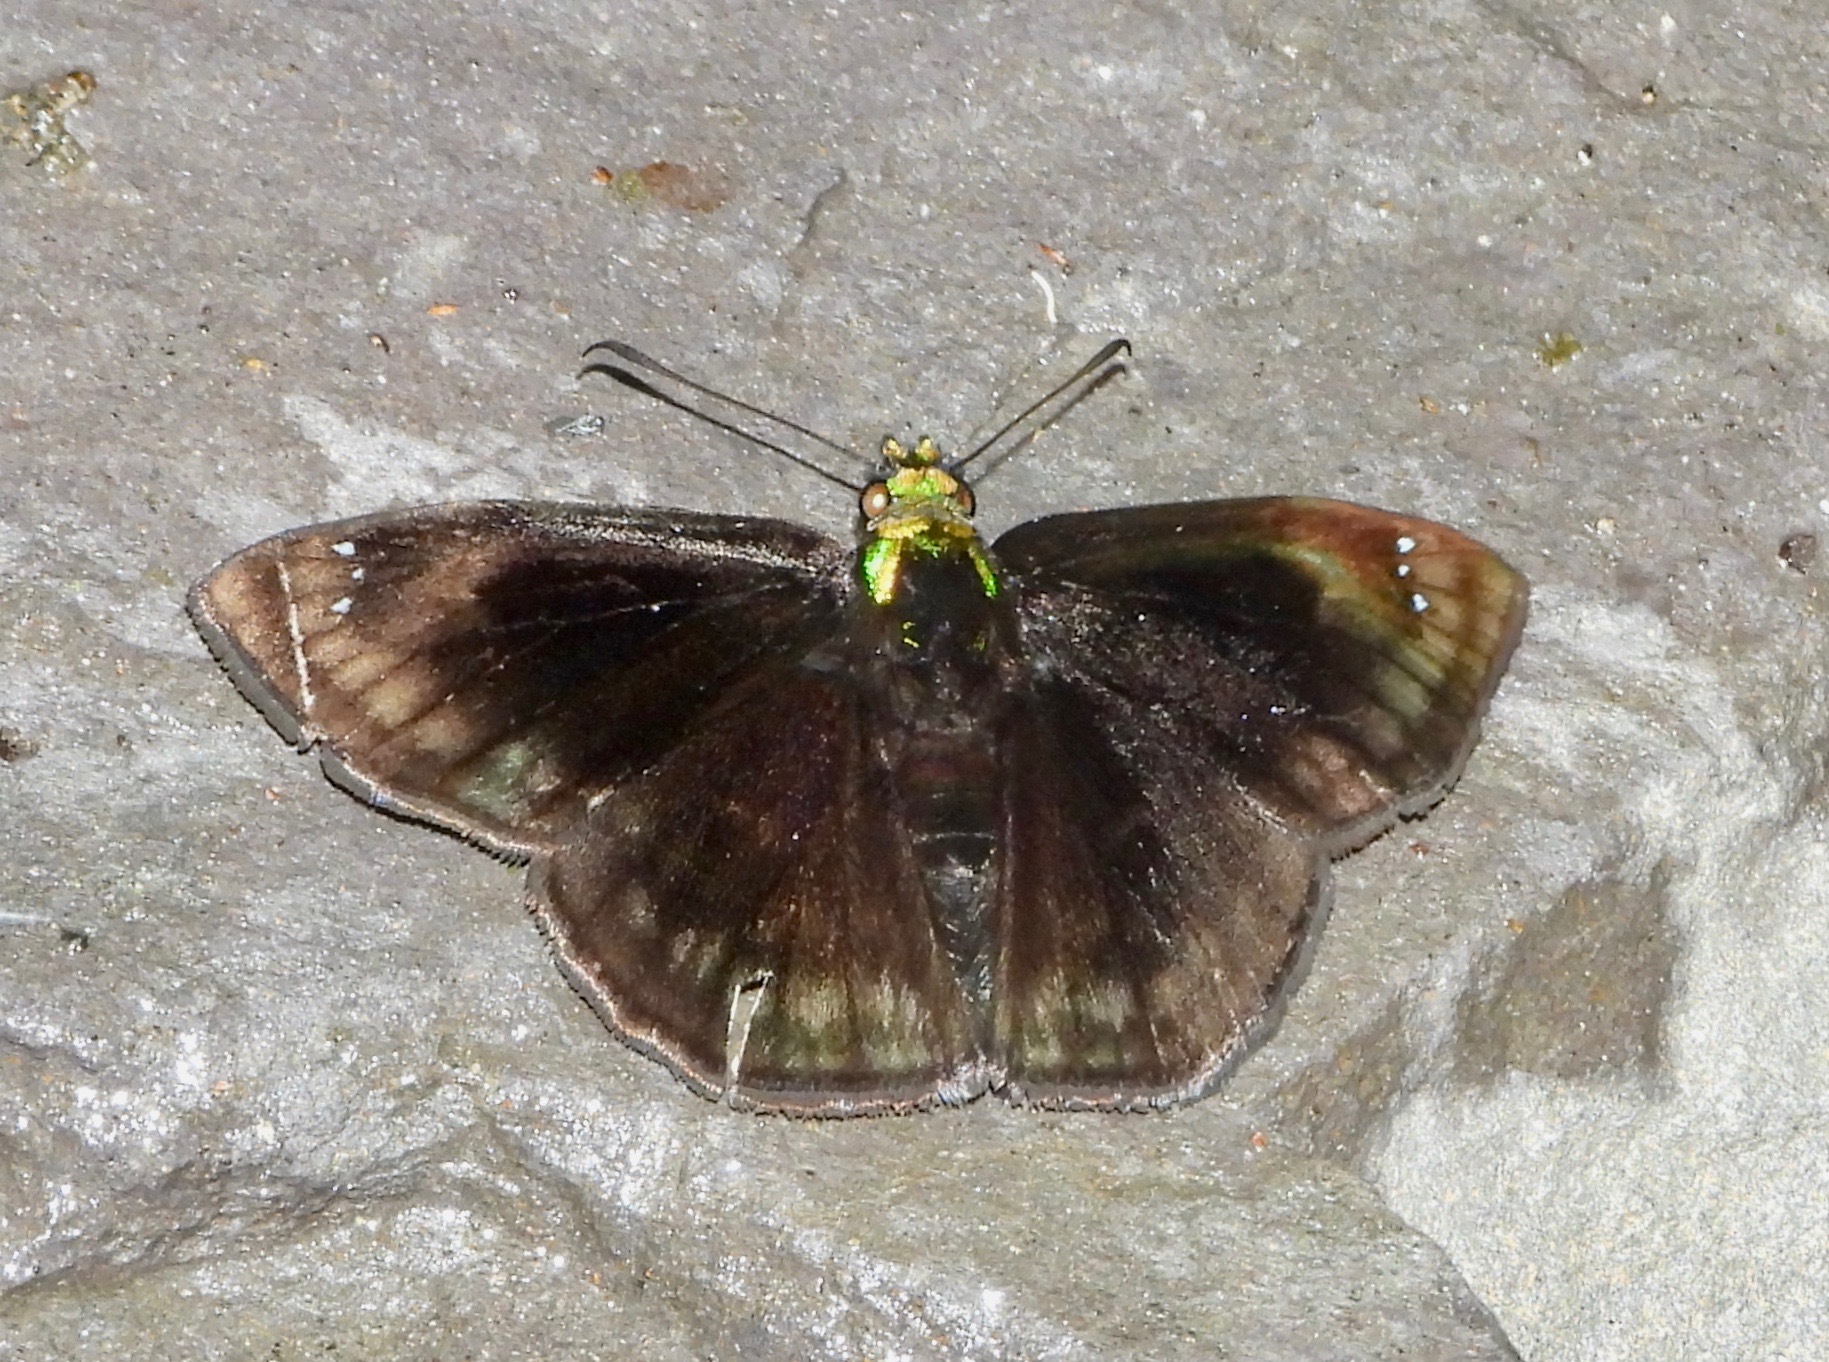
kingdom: Animalia
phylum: Arthropoda
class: Insecta
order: Lepidoptera
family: Hesperiidae
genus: Gorgopas
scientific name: Gorgopas chlorocephala
